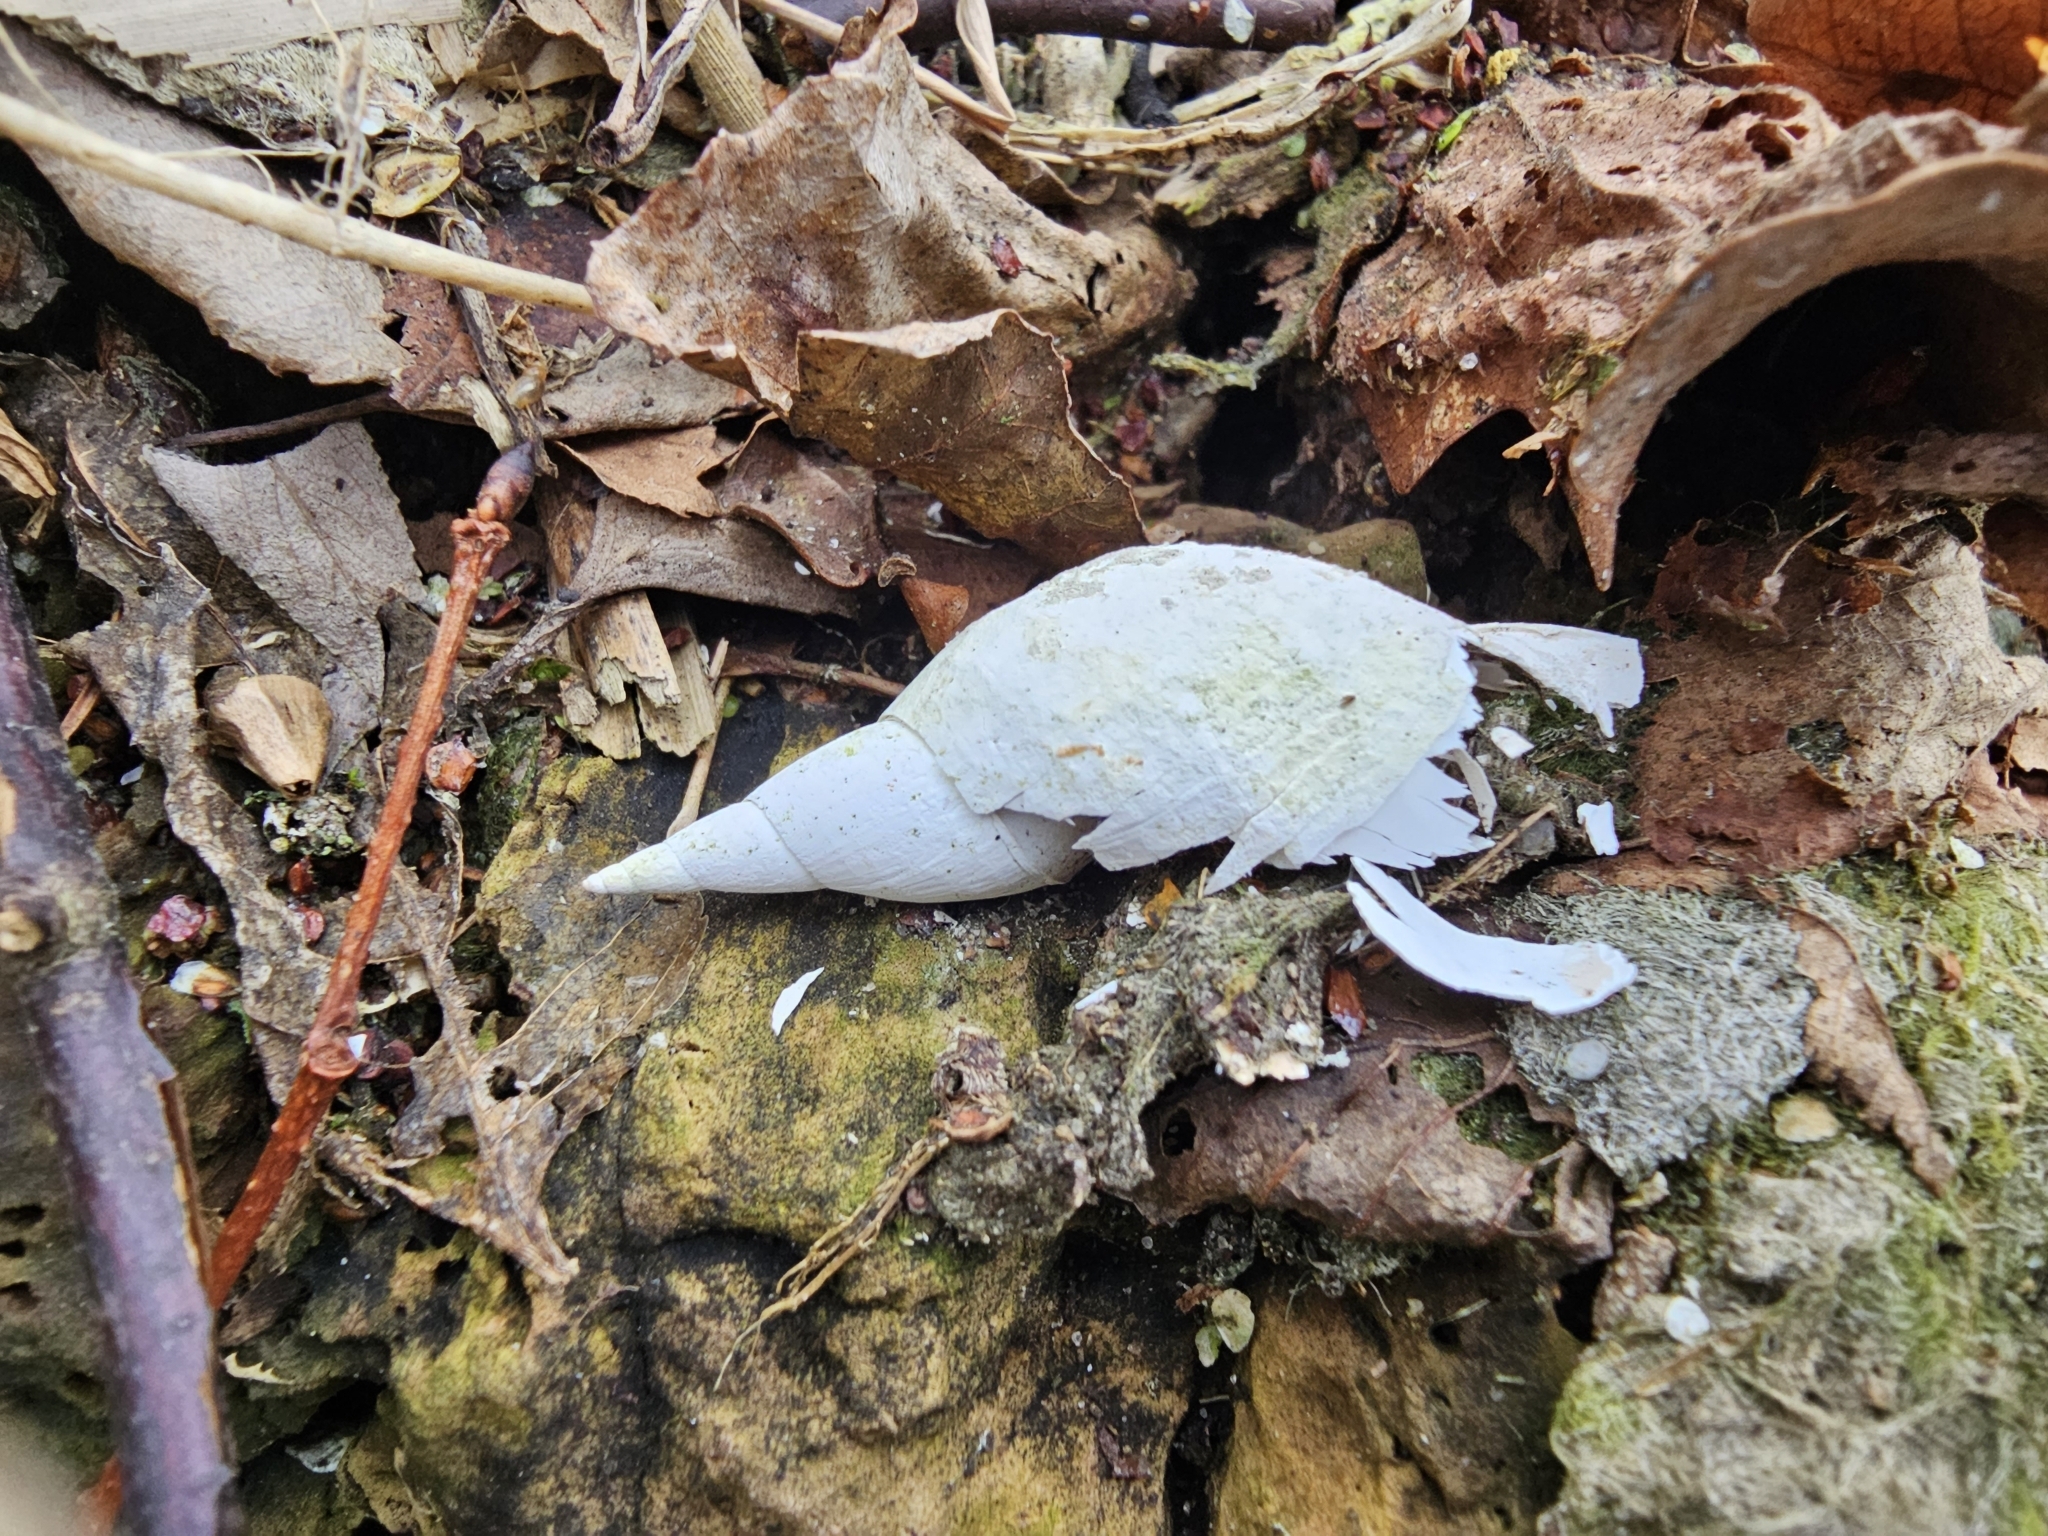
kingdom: Animalia
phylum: Mollusca
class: Gastropoda
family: Lymnaeidae
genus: Lymnaea
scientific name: Lymnaea stagnalis
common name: Great pond snail
